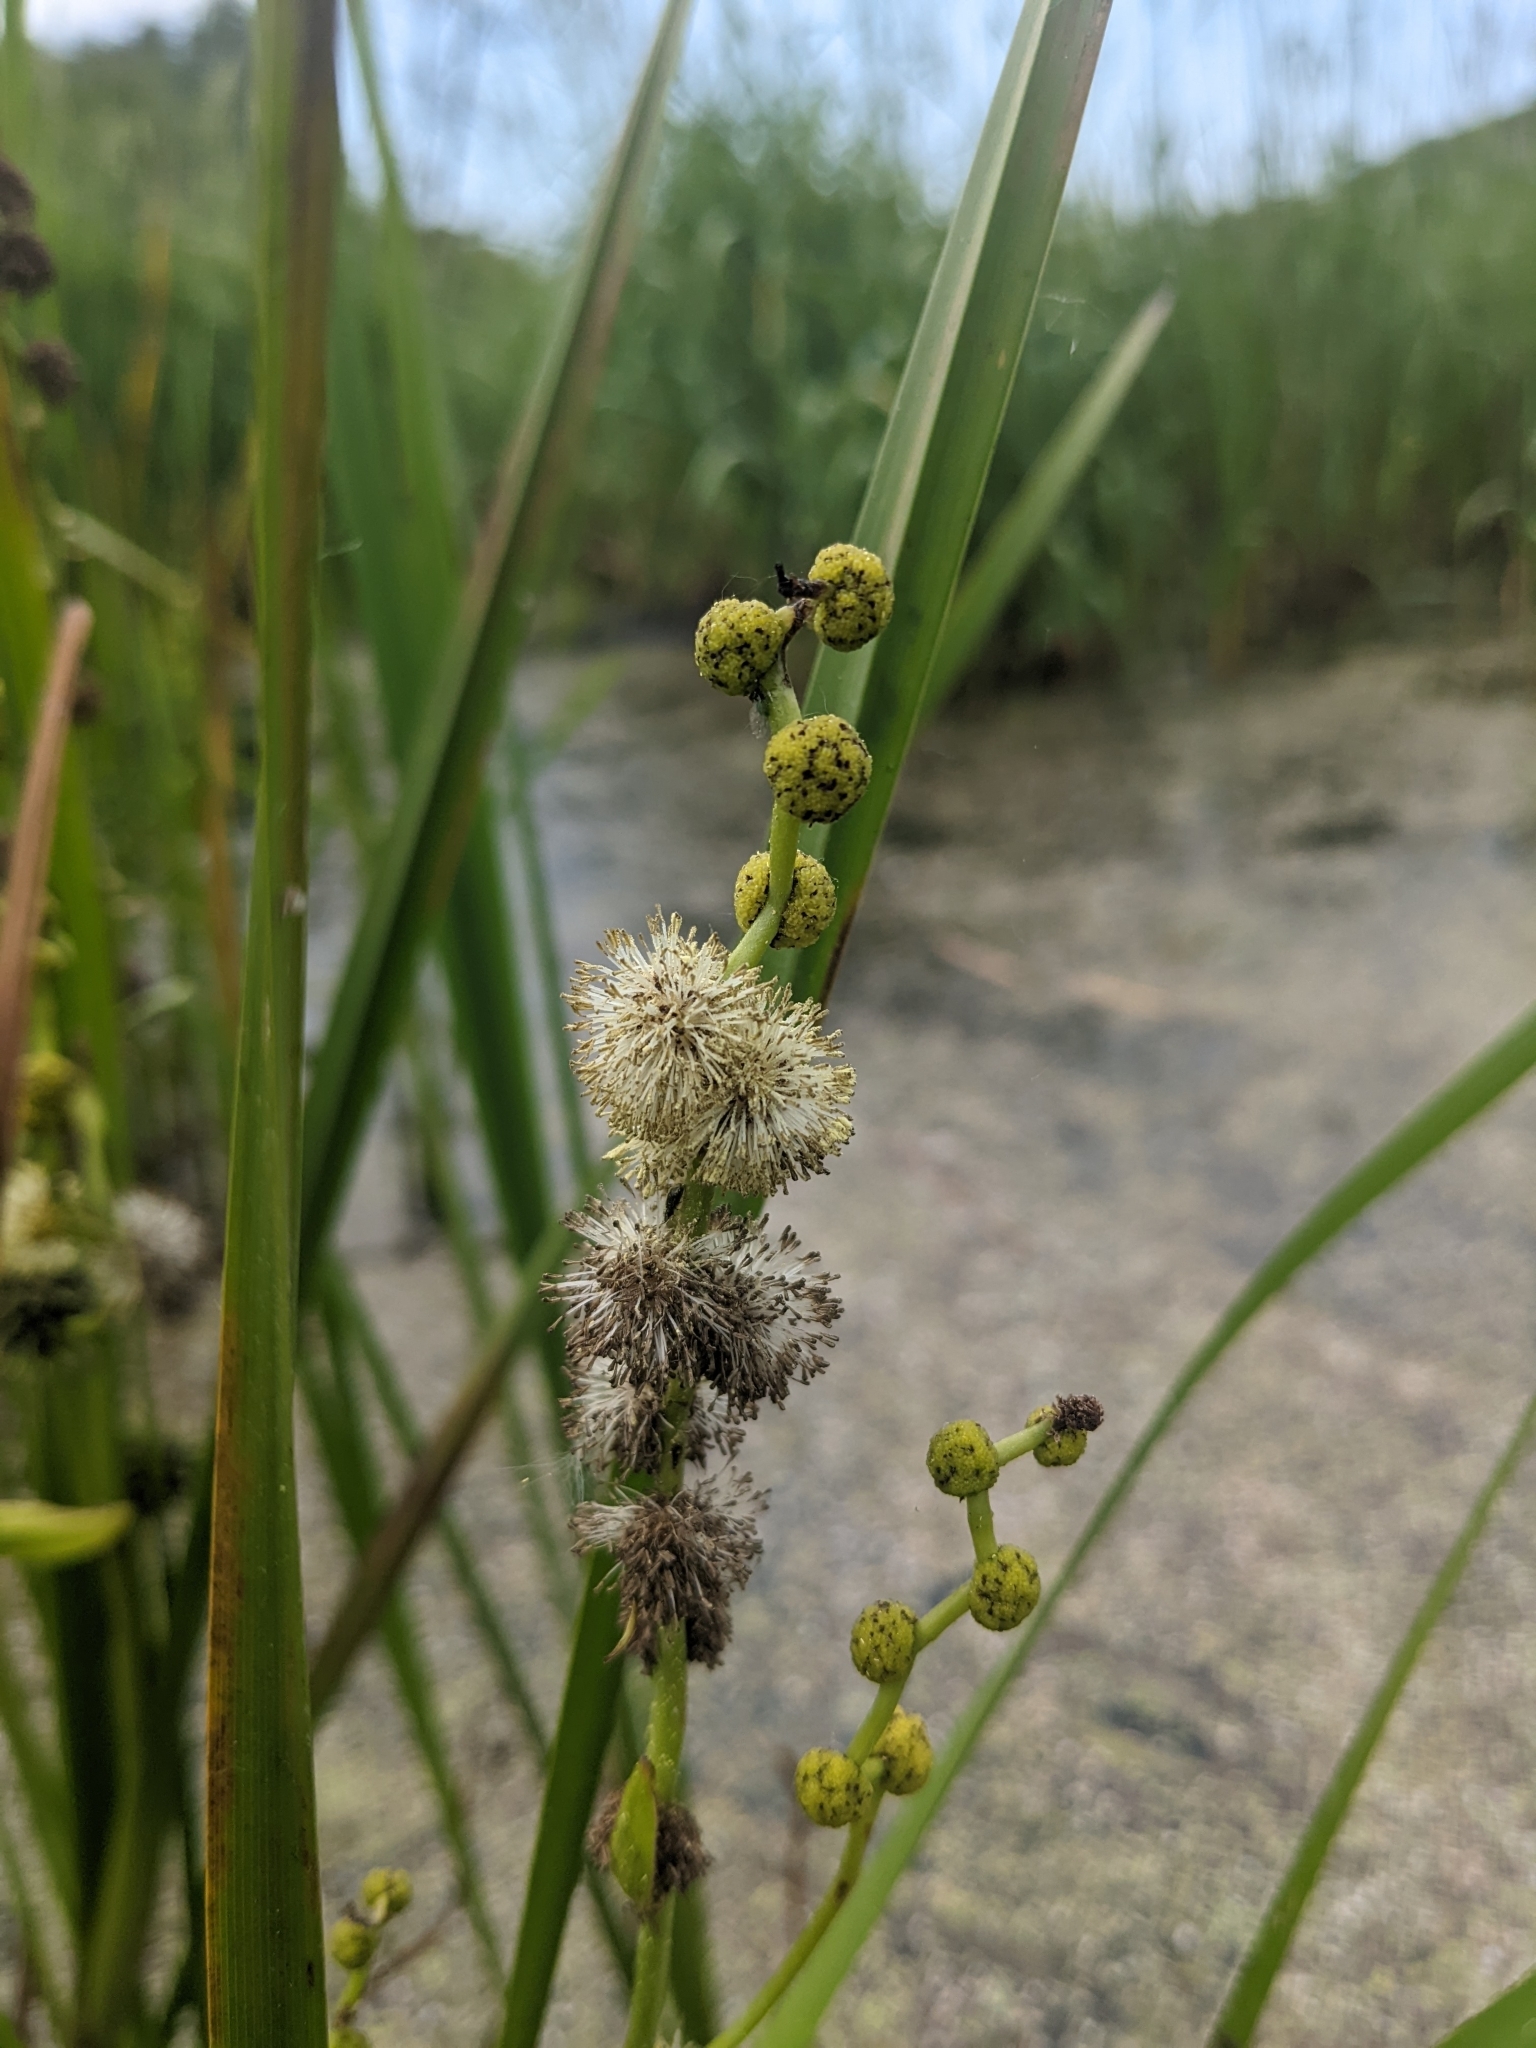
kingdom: Plantae
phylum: Tracheophyta
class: Liliopsida
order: Poales
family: Typhaceae
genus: Sparganium
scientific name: Sparganium eurycarpum
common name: Broad-fruited burreed
